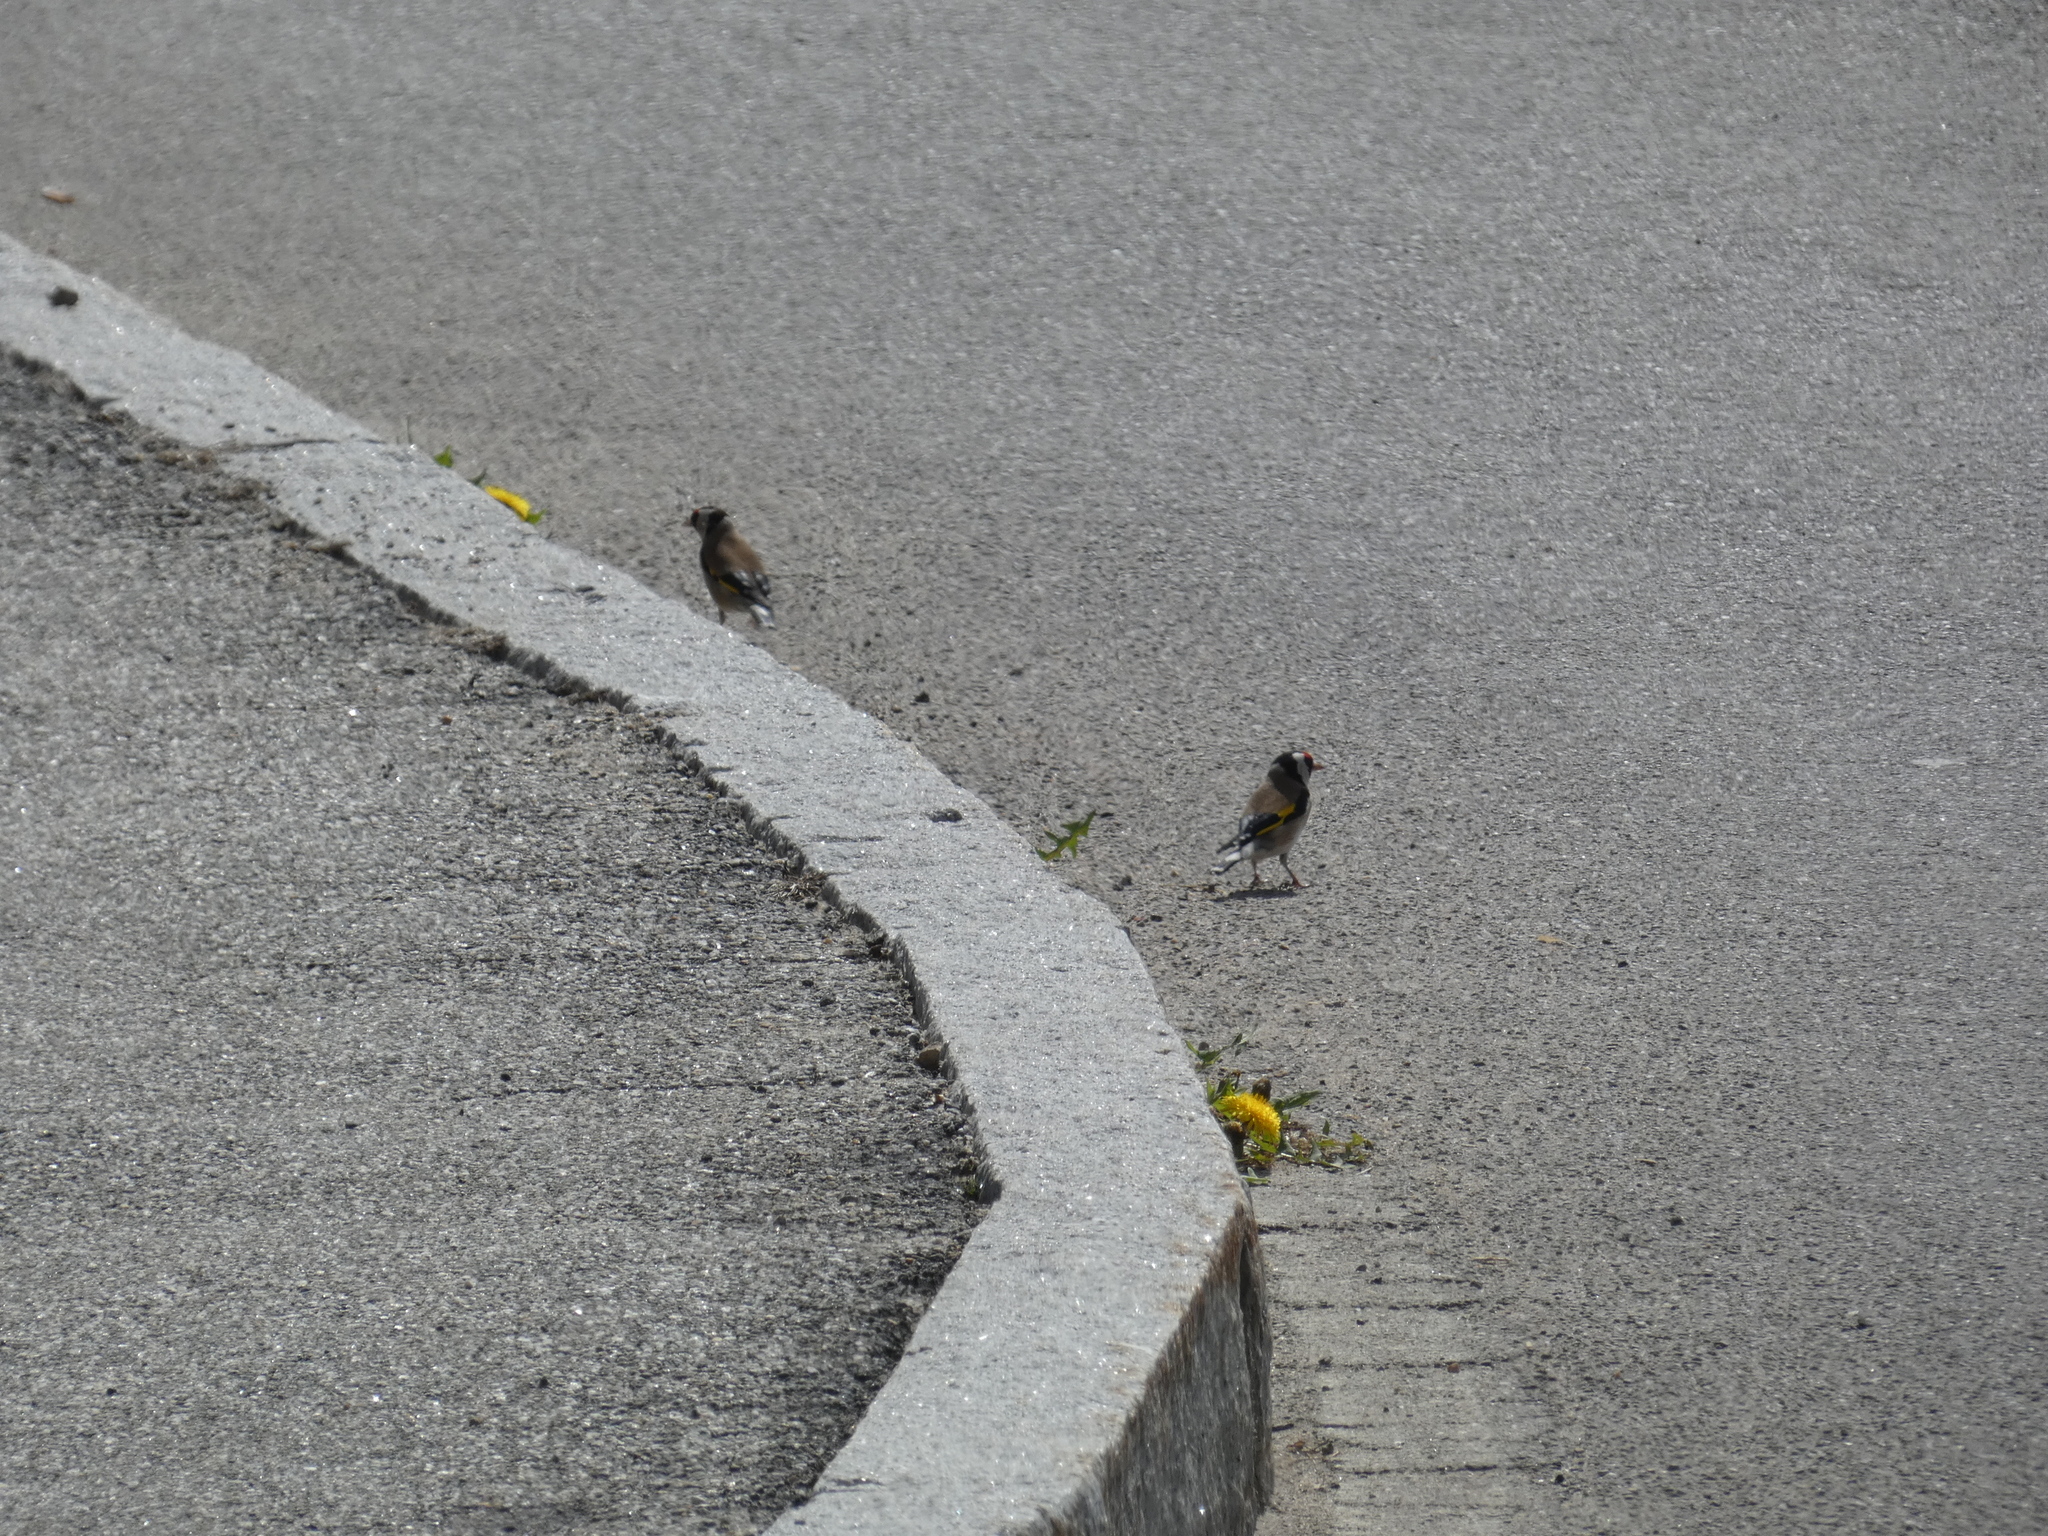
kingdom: Animalia
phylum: Chordata
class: Aves
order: Passeriformes
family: Fringillidae
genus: Carduelis
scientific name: Carduelis carduelis
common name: European goldfinch
